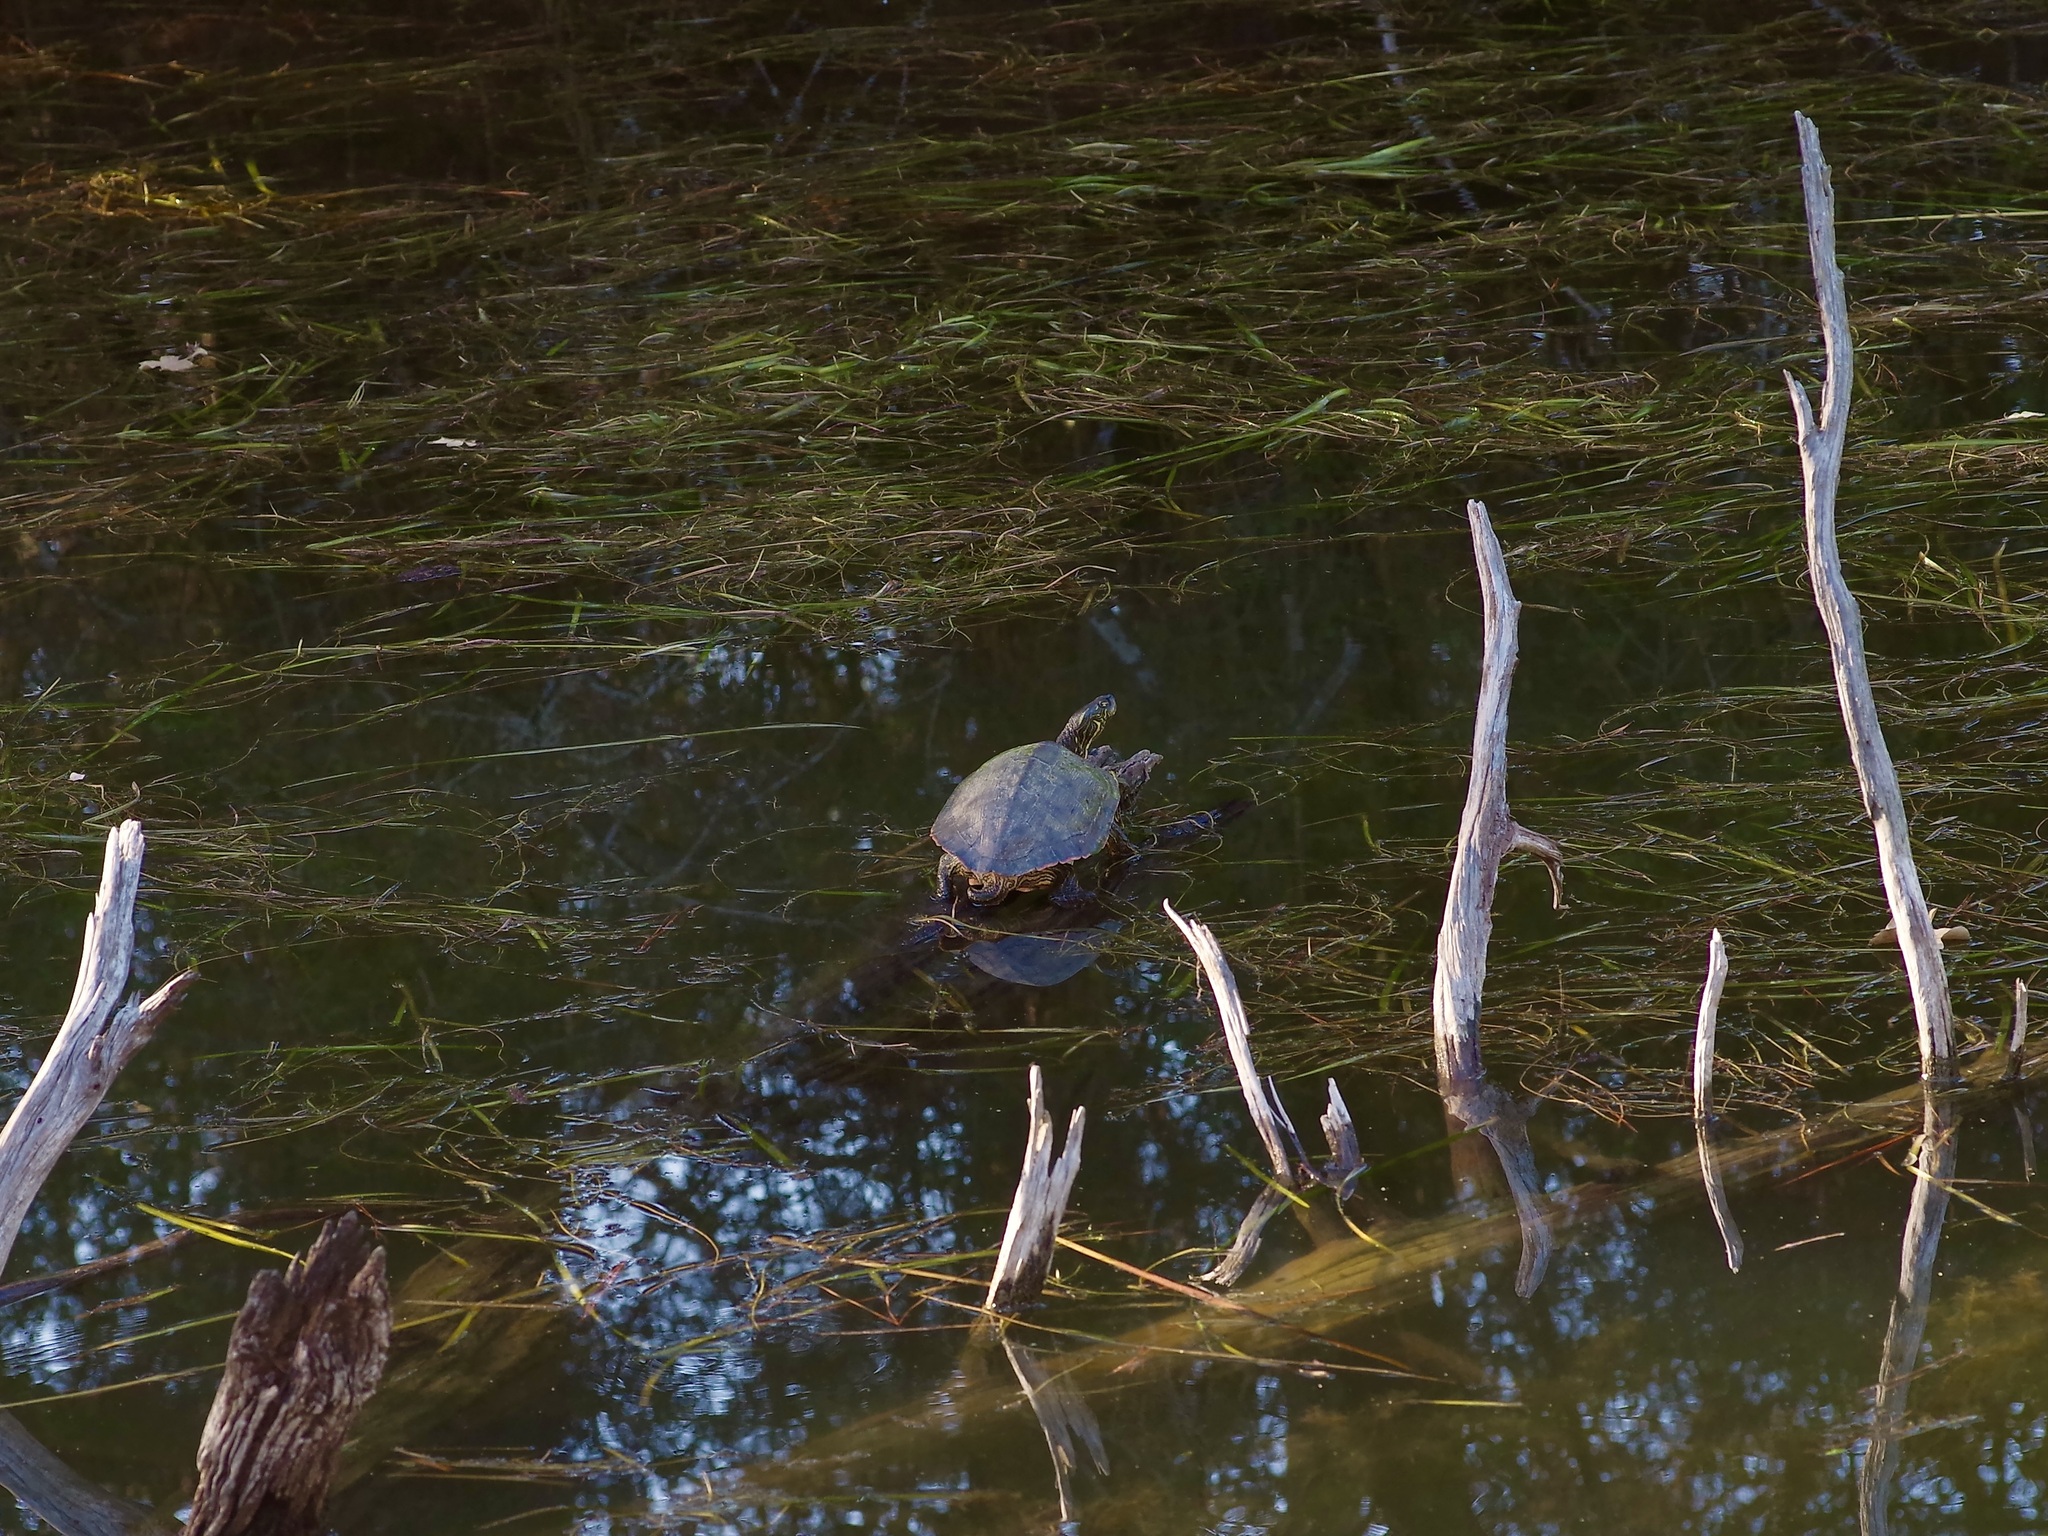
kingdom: Animalia
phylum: Chordata
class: Testudines
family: Emydidae
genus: Pseudemys
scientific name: Pseudemys texana
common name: Texas river cooter
